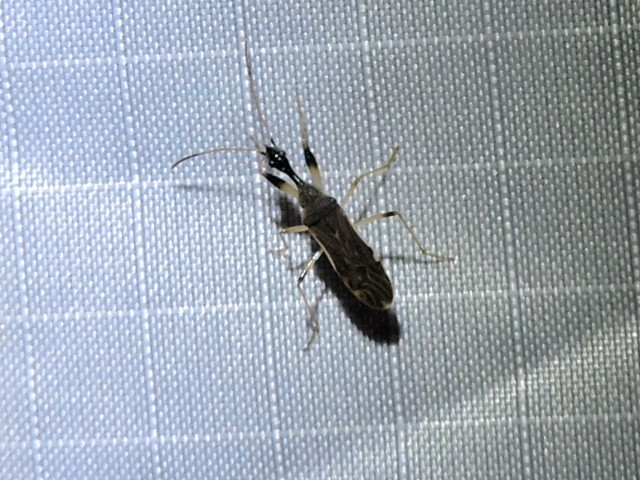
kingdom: Animalia
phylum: Arthropoda
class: Insecta
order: Hemiptera
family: Rhyparochromidae
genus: Myodocha
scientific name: Myodocha serripes
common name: Long-necked seed bug
